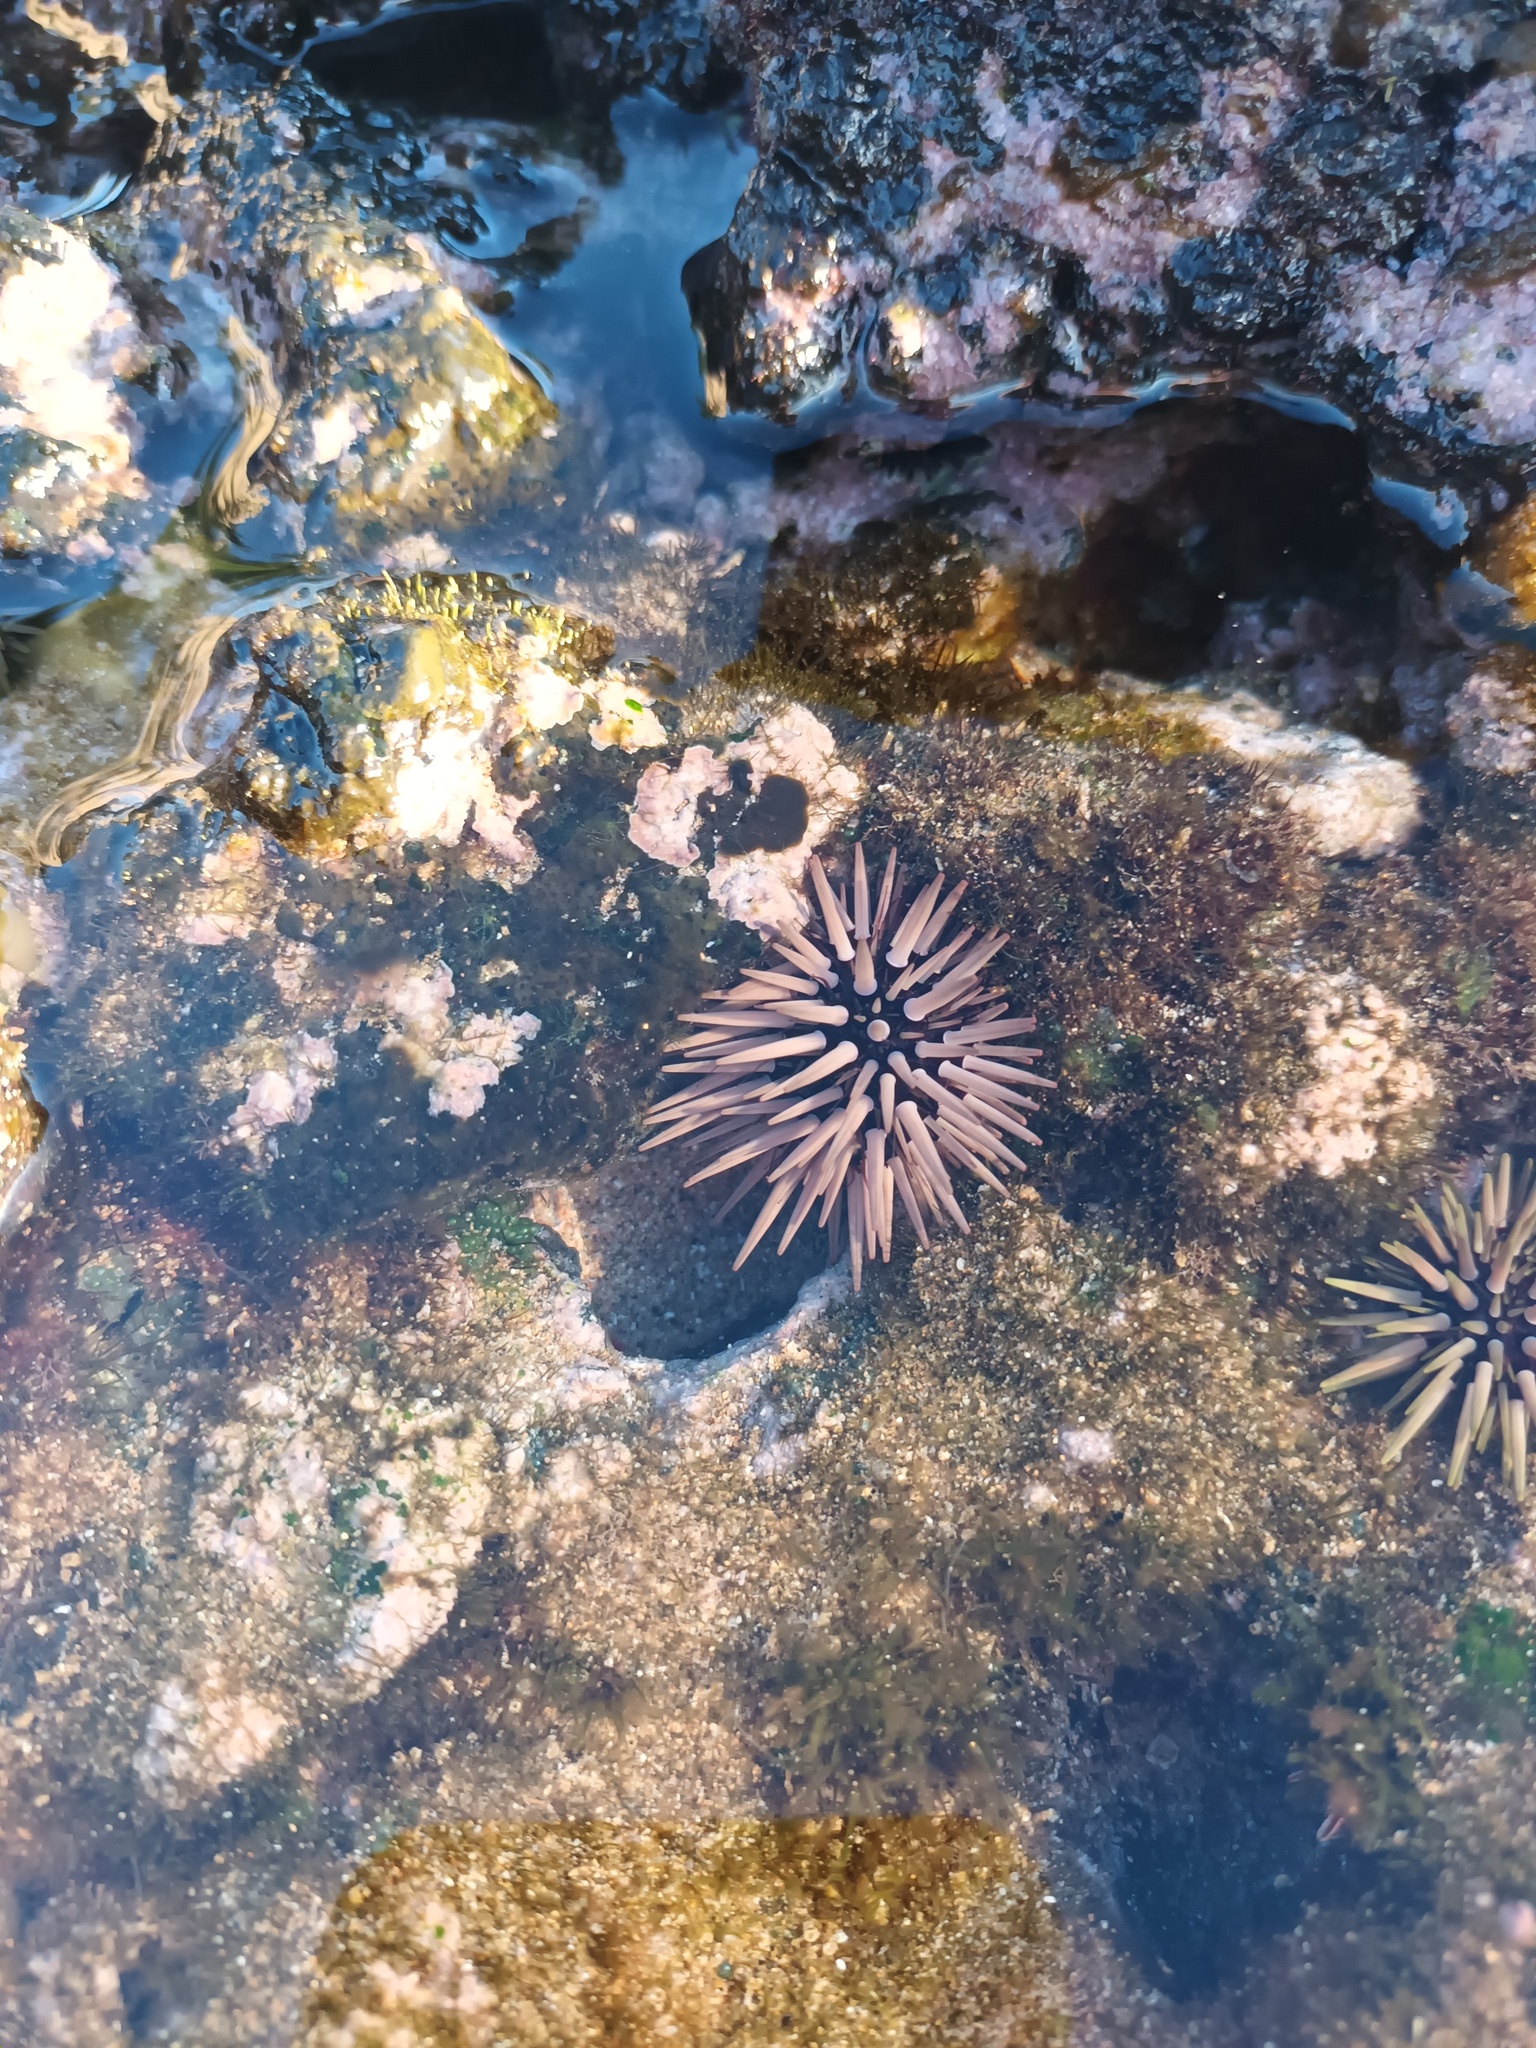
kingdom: Animalia
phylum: Echinodermata
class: Echinoidea
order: Camarodonta
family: Echinometridae
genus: Echinometra
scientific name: Echinometra mathaei
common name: Rock-boring urchin
